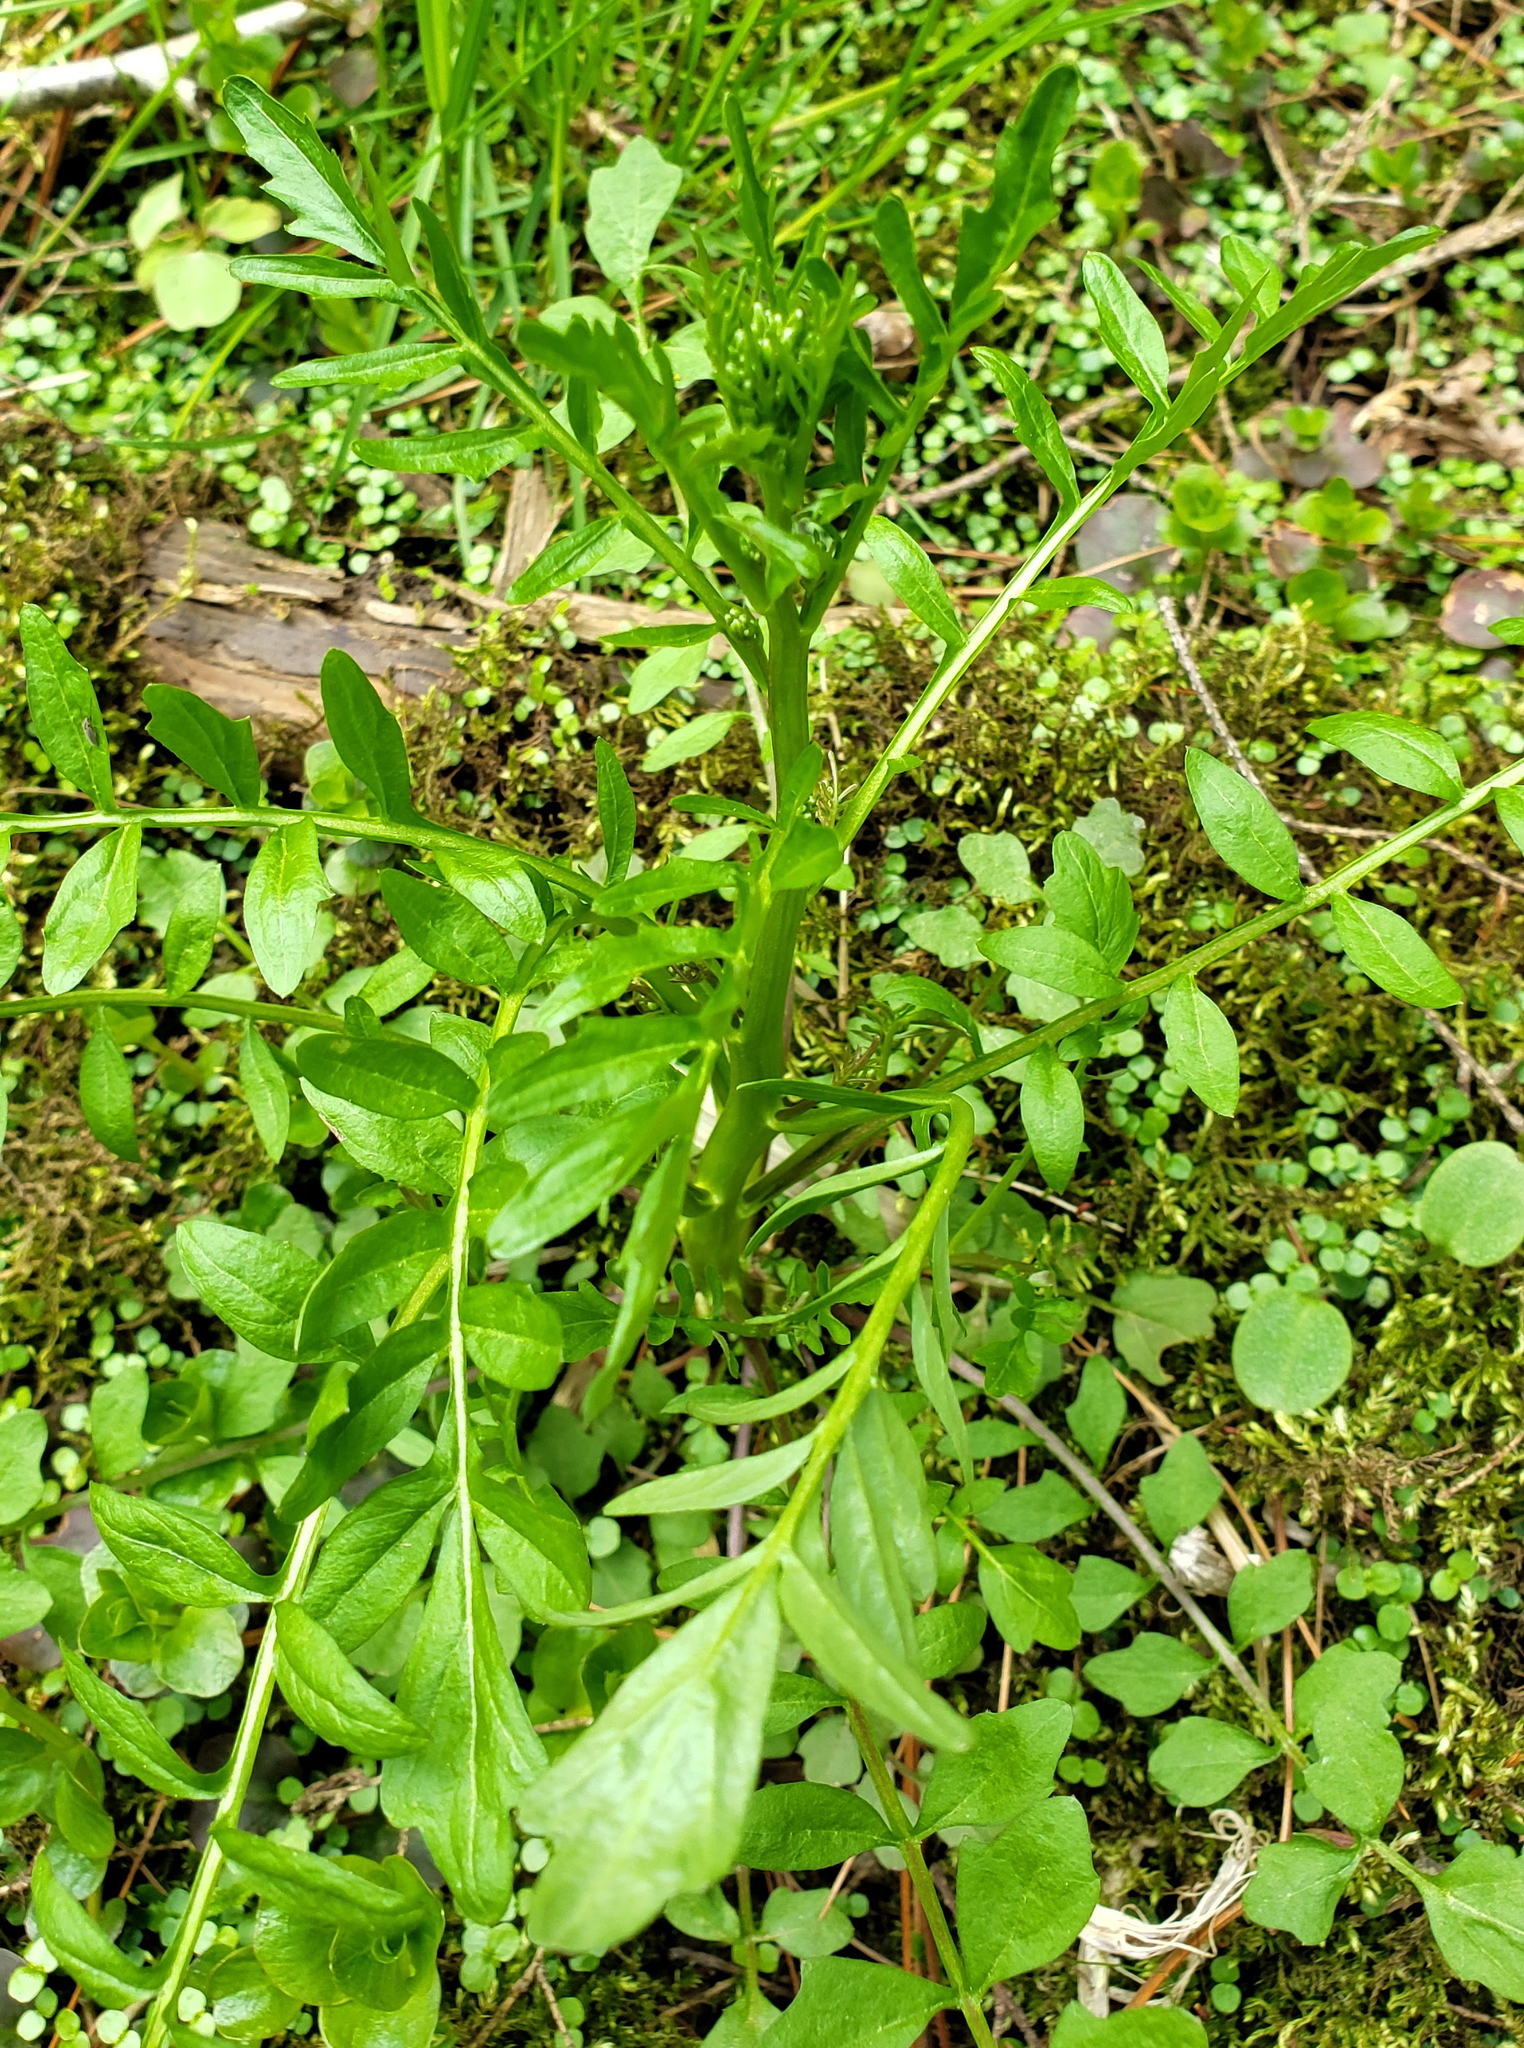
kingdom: Plantae
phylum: Tracheophyta
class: Magnoliopsida
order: Brassicales
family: Brassicaceae
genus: Cardamine
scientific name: Cardamine pensylvanica
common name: Pennsylvania bittercress
